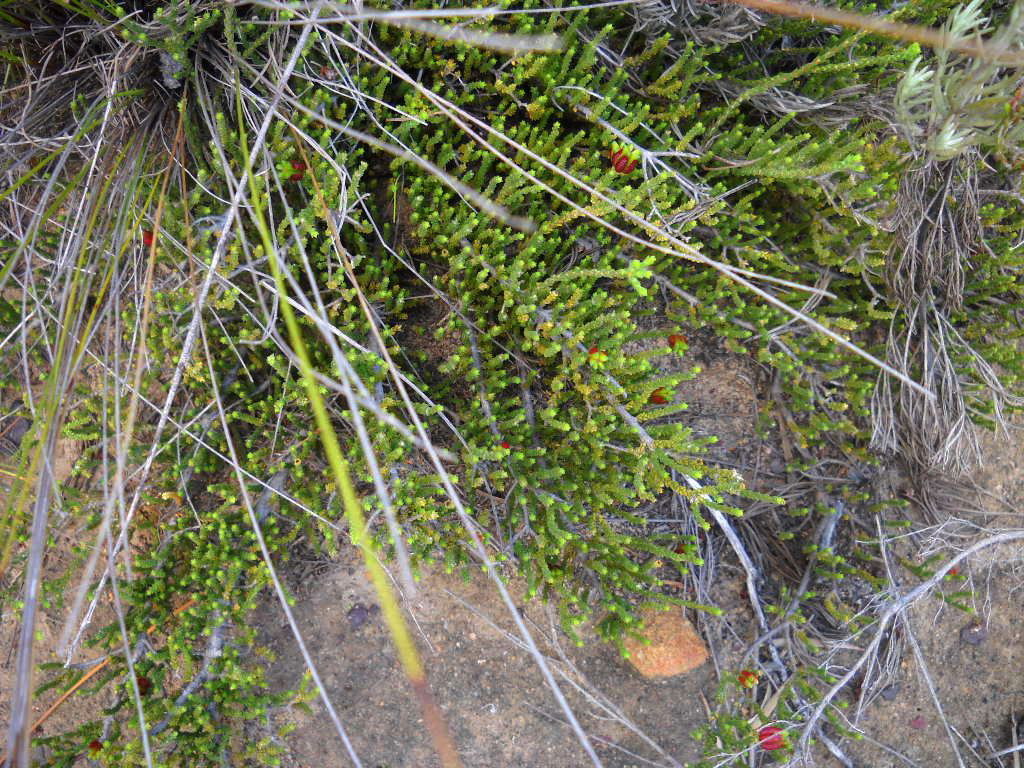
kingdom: Plantae
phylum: Tracheophyta
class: Magnoliopsida
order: Sapindales
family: Rutaceae
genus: Diosma
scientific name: Diosma passerinoides
